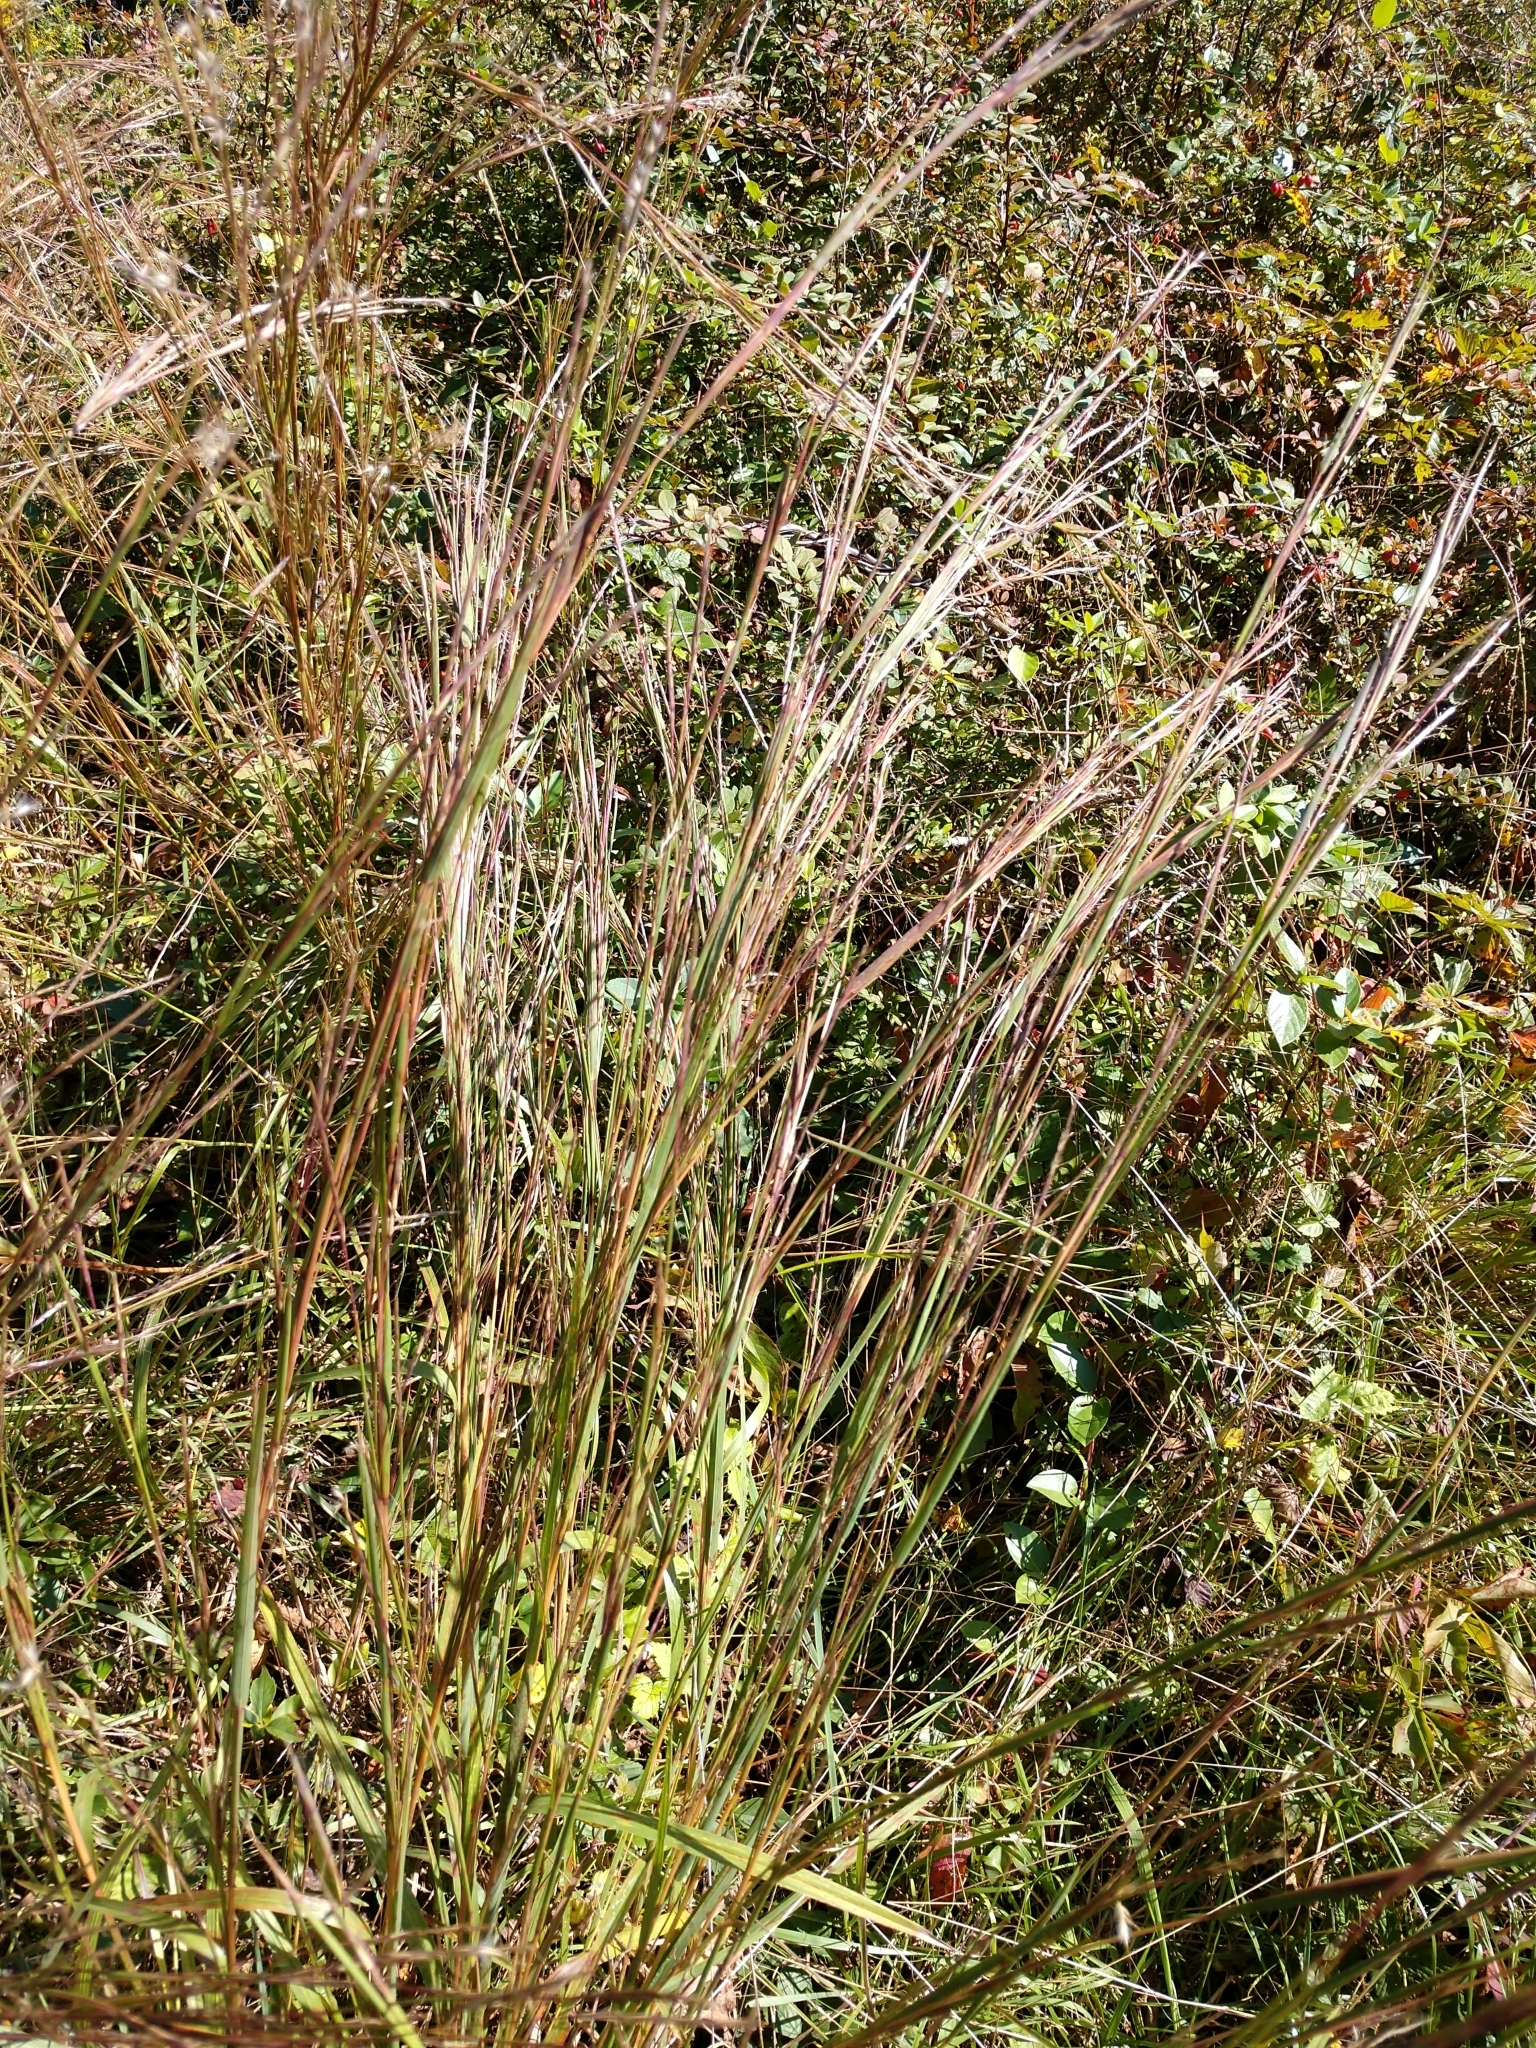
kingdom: Plantae
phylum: Tracheophyta
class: Liliopsida
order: Poales
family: Poaceae
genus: Schizachyrium
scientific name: Schizachyrium scoparium
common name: Little bluestem
